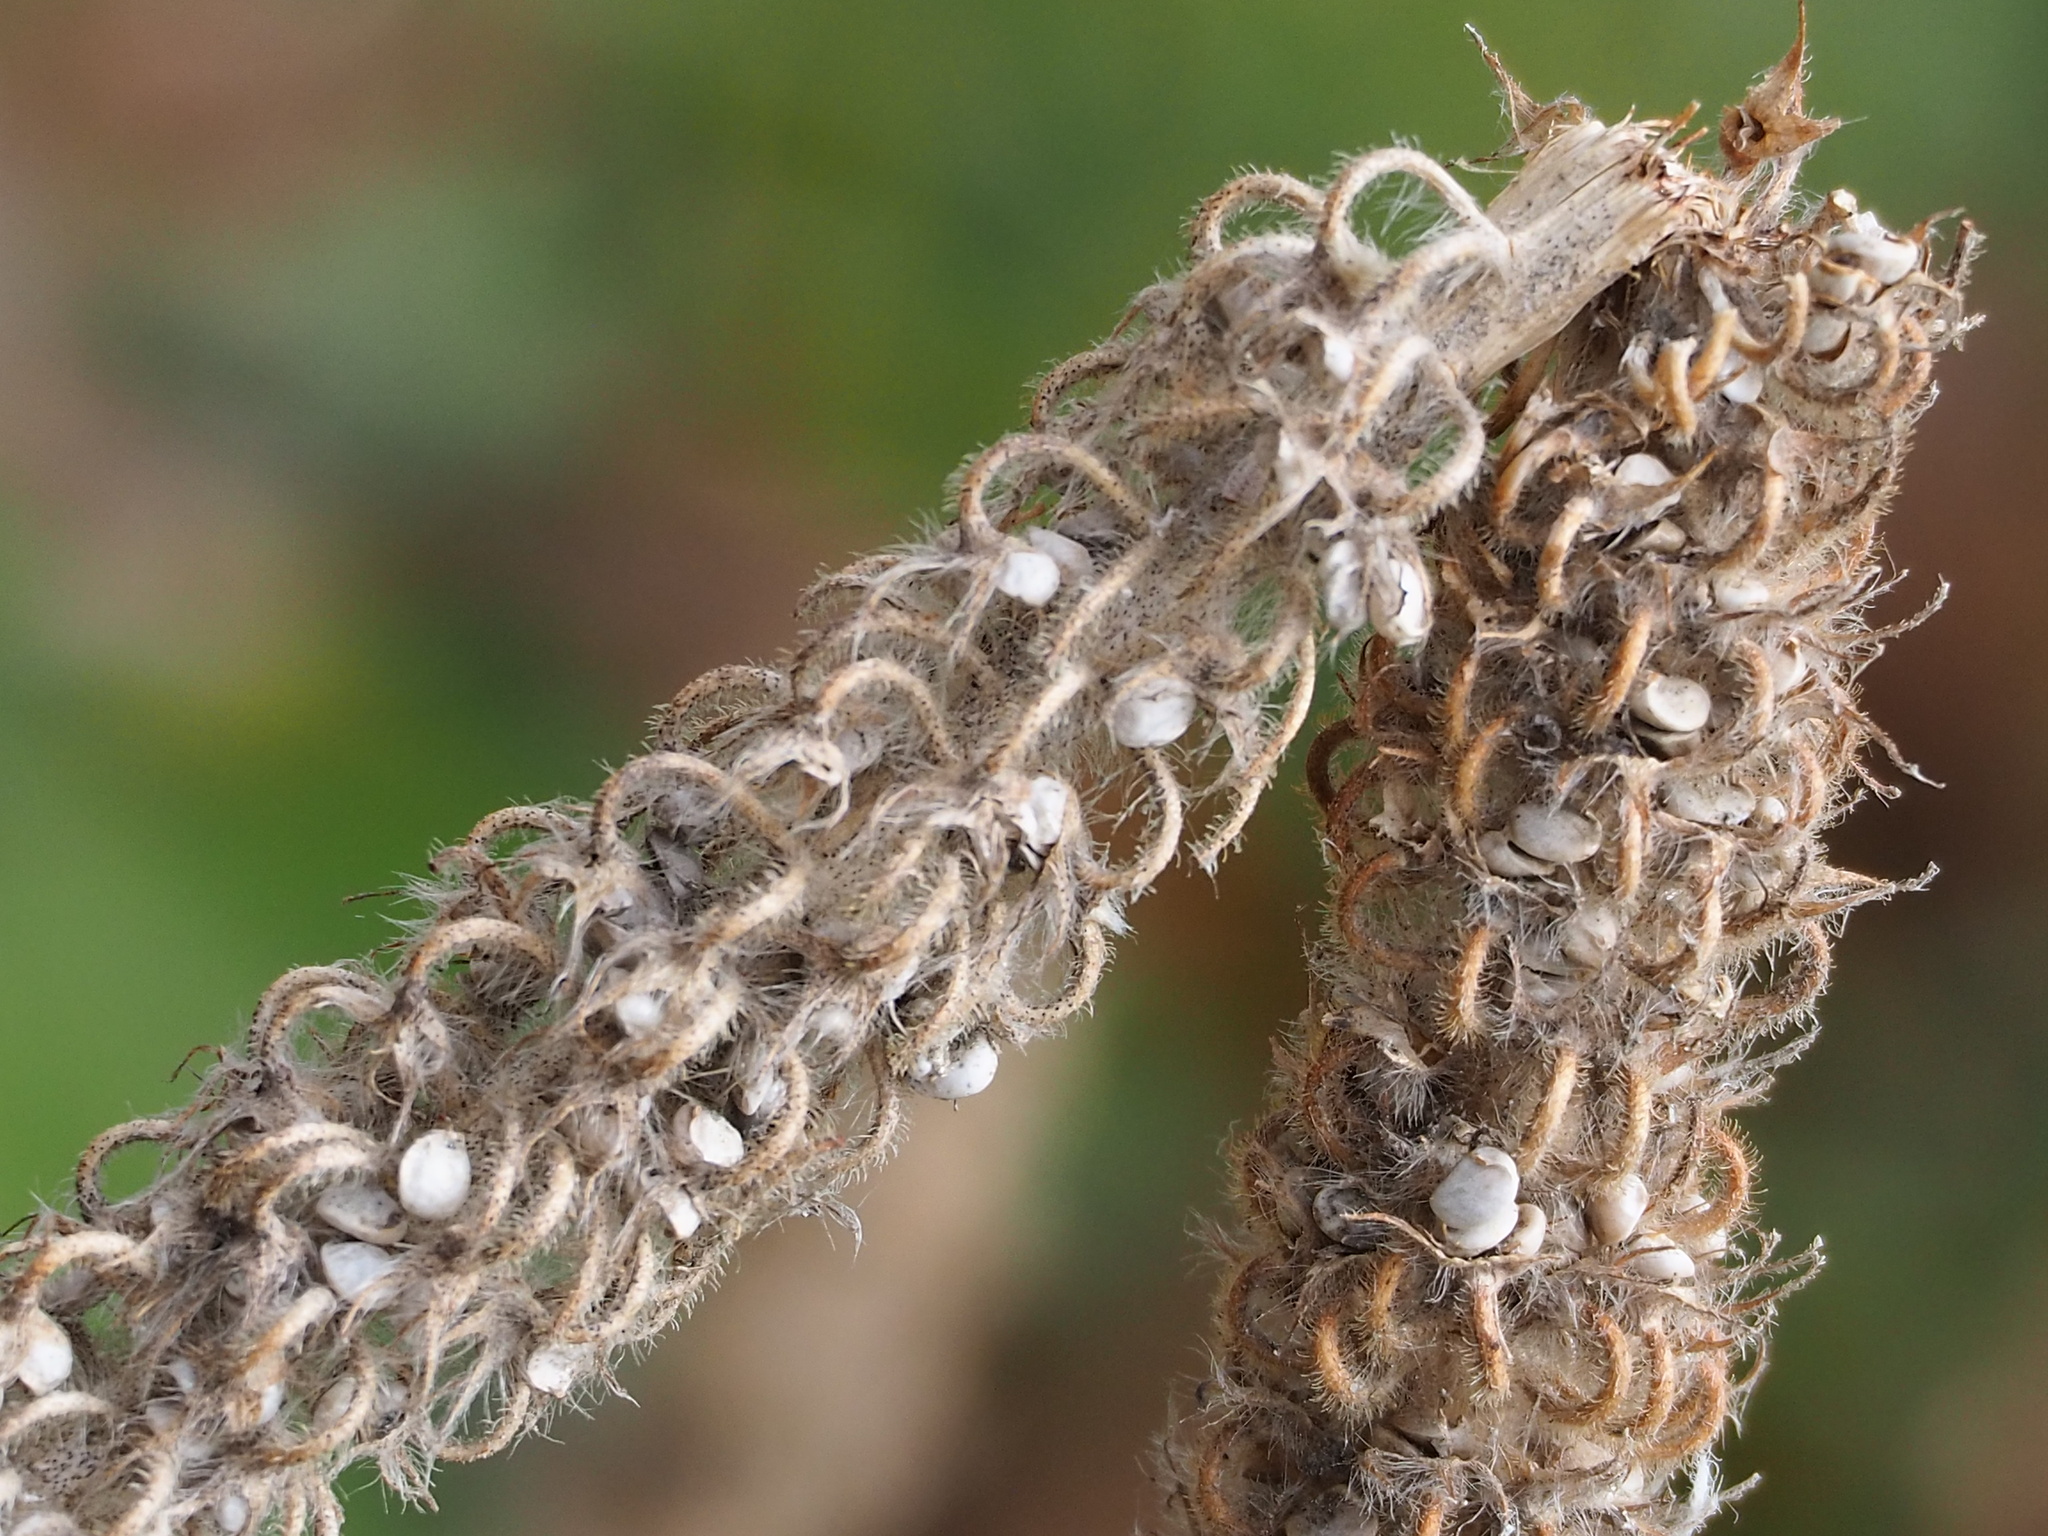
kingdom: Plantae
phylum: Tracheophyta
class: Magnoliopsida
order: Fabales
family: Fabaceae
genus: Uraria
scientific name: Uraria crinita
